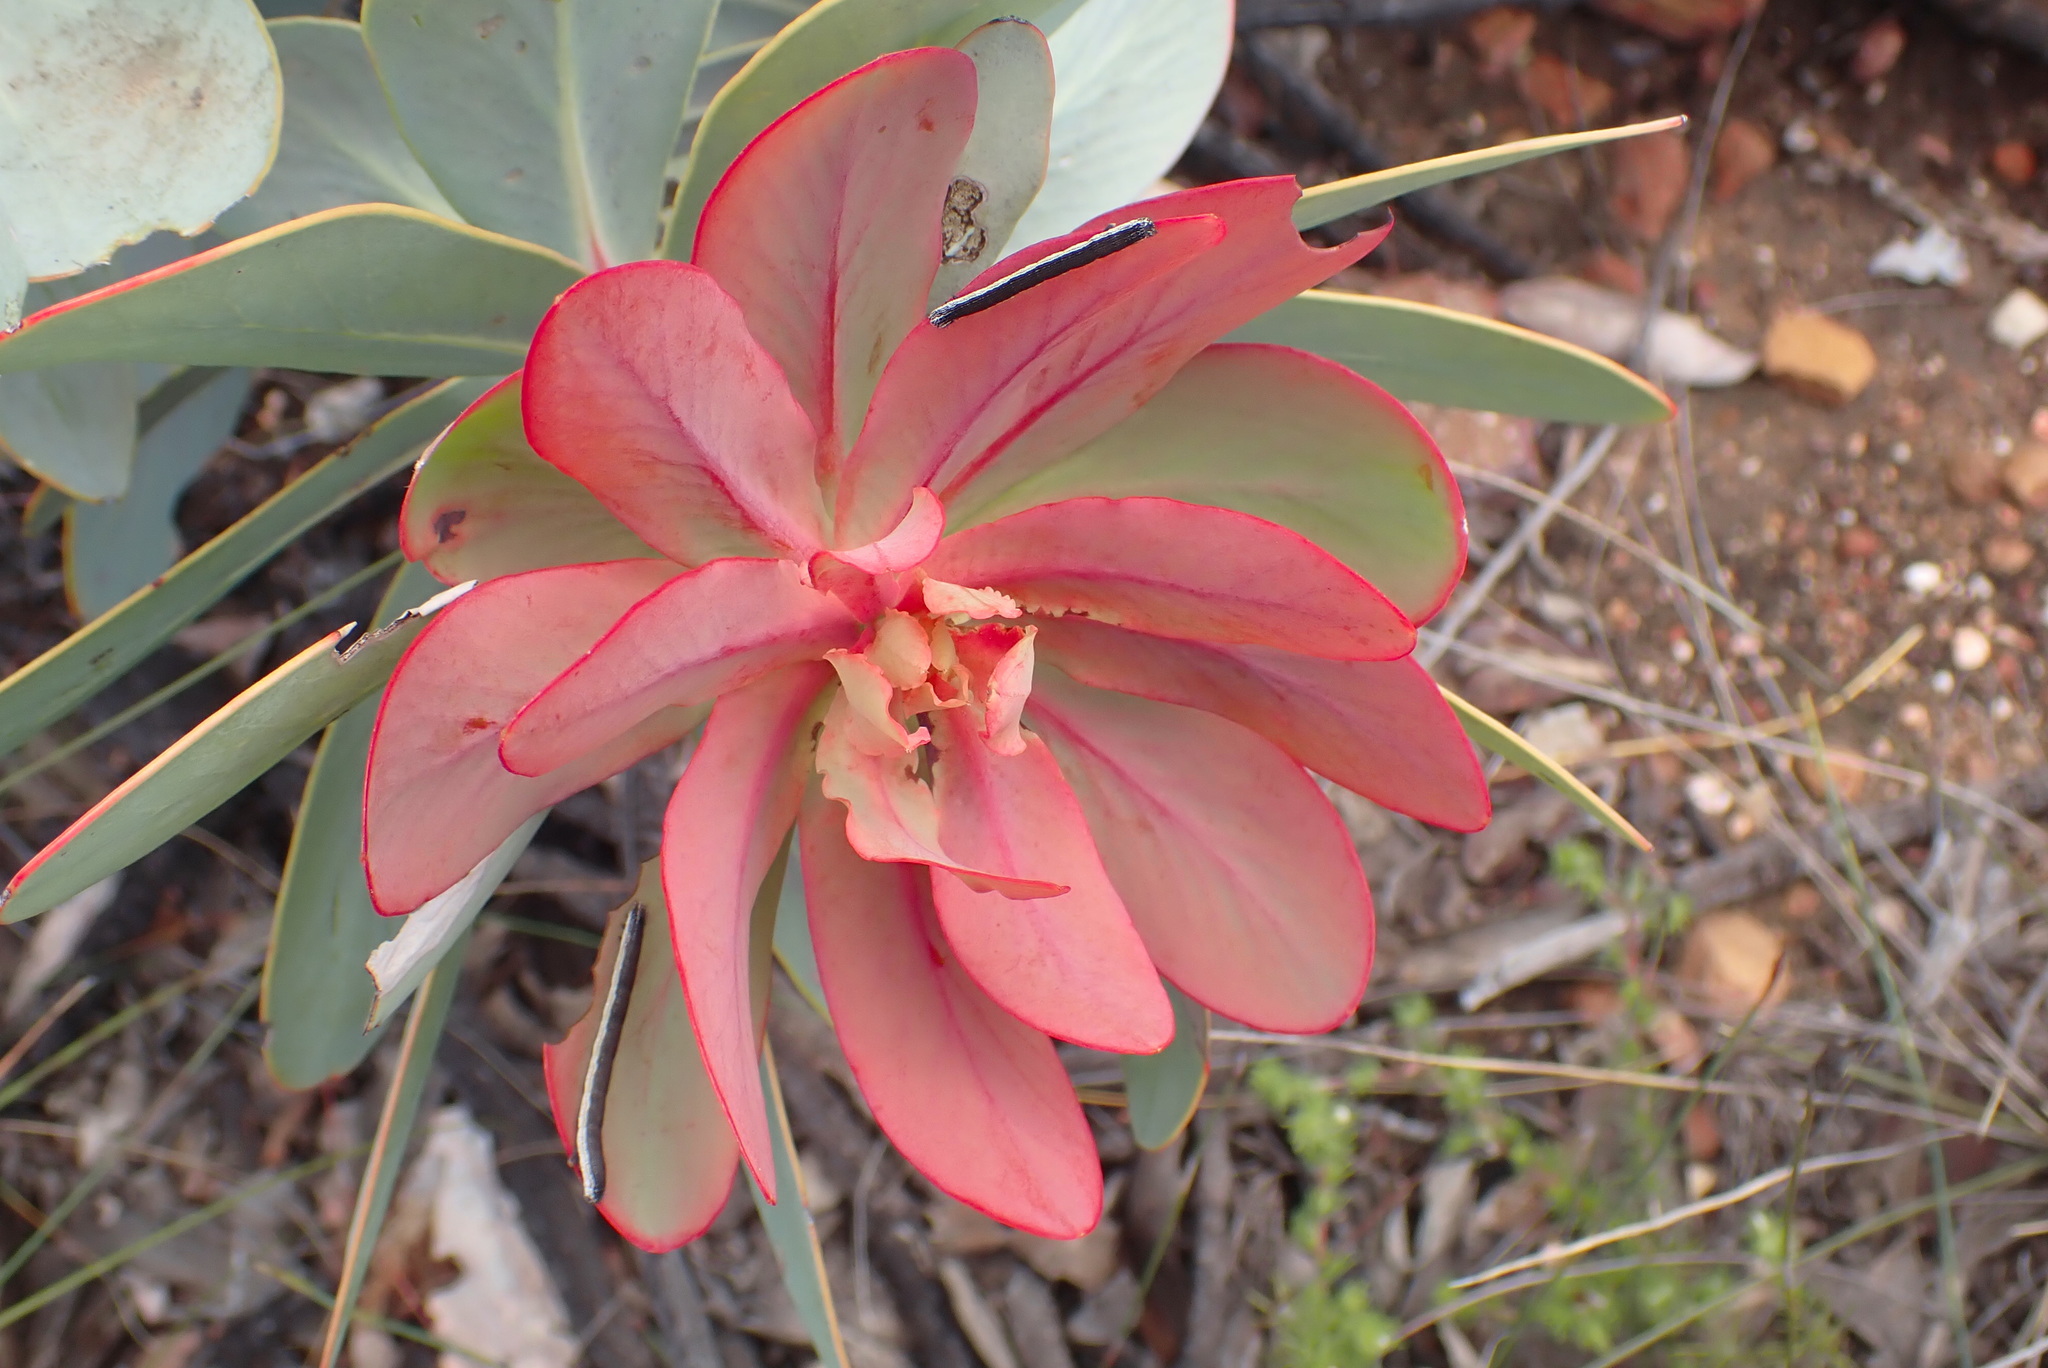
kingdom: Plantae
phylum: Tracheophyta
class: Magnoliopsida
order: Proteales
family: Proteaceae
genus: Protea
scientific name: Protea nitida
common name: Tree protea
